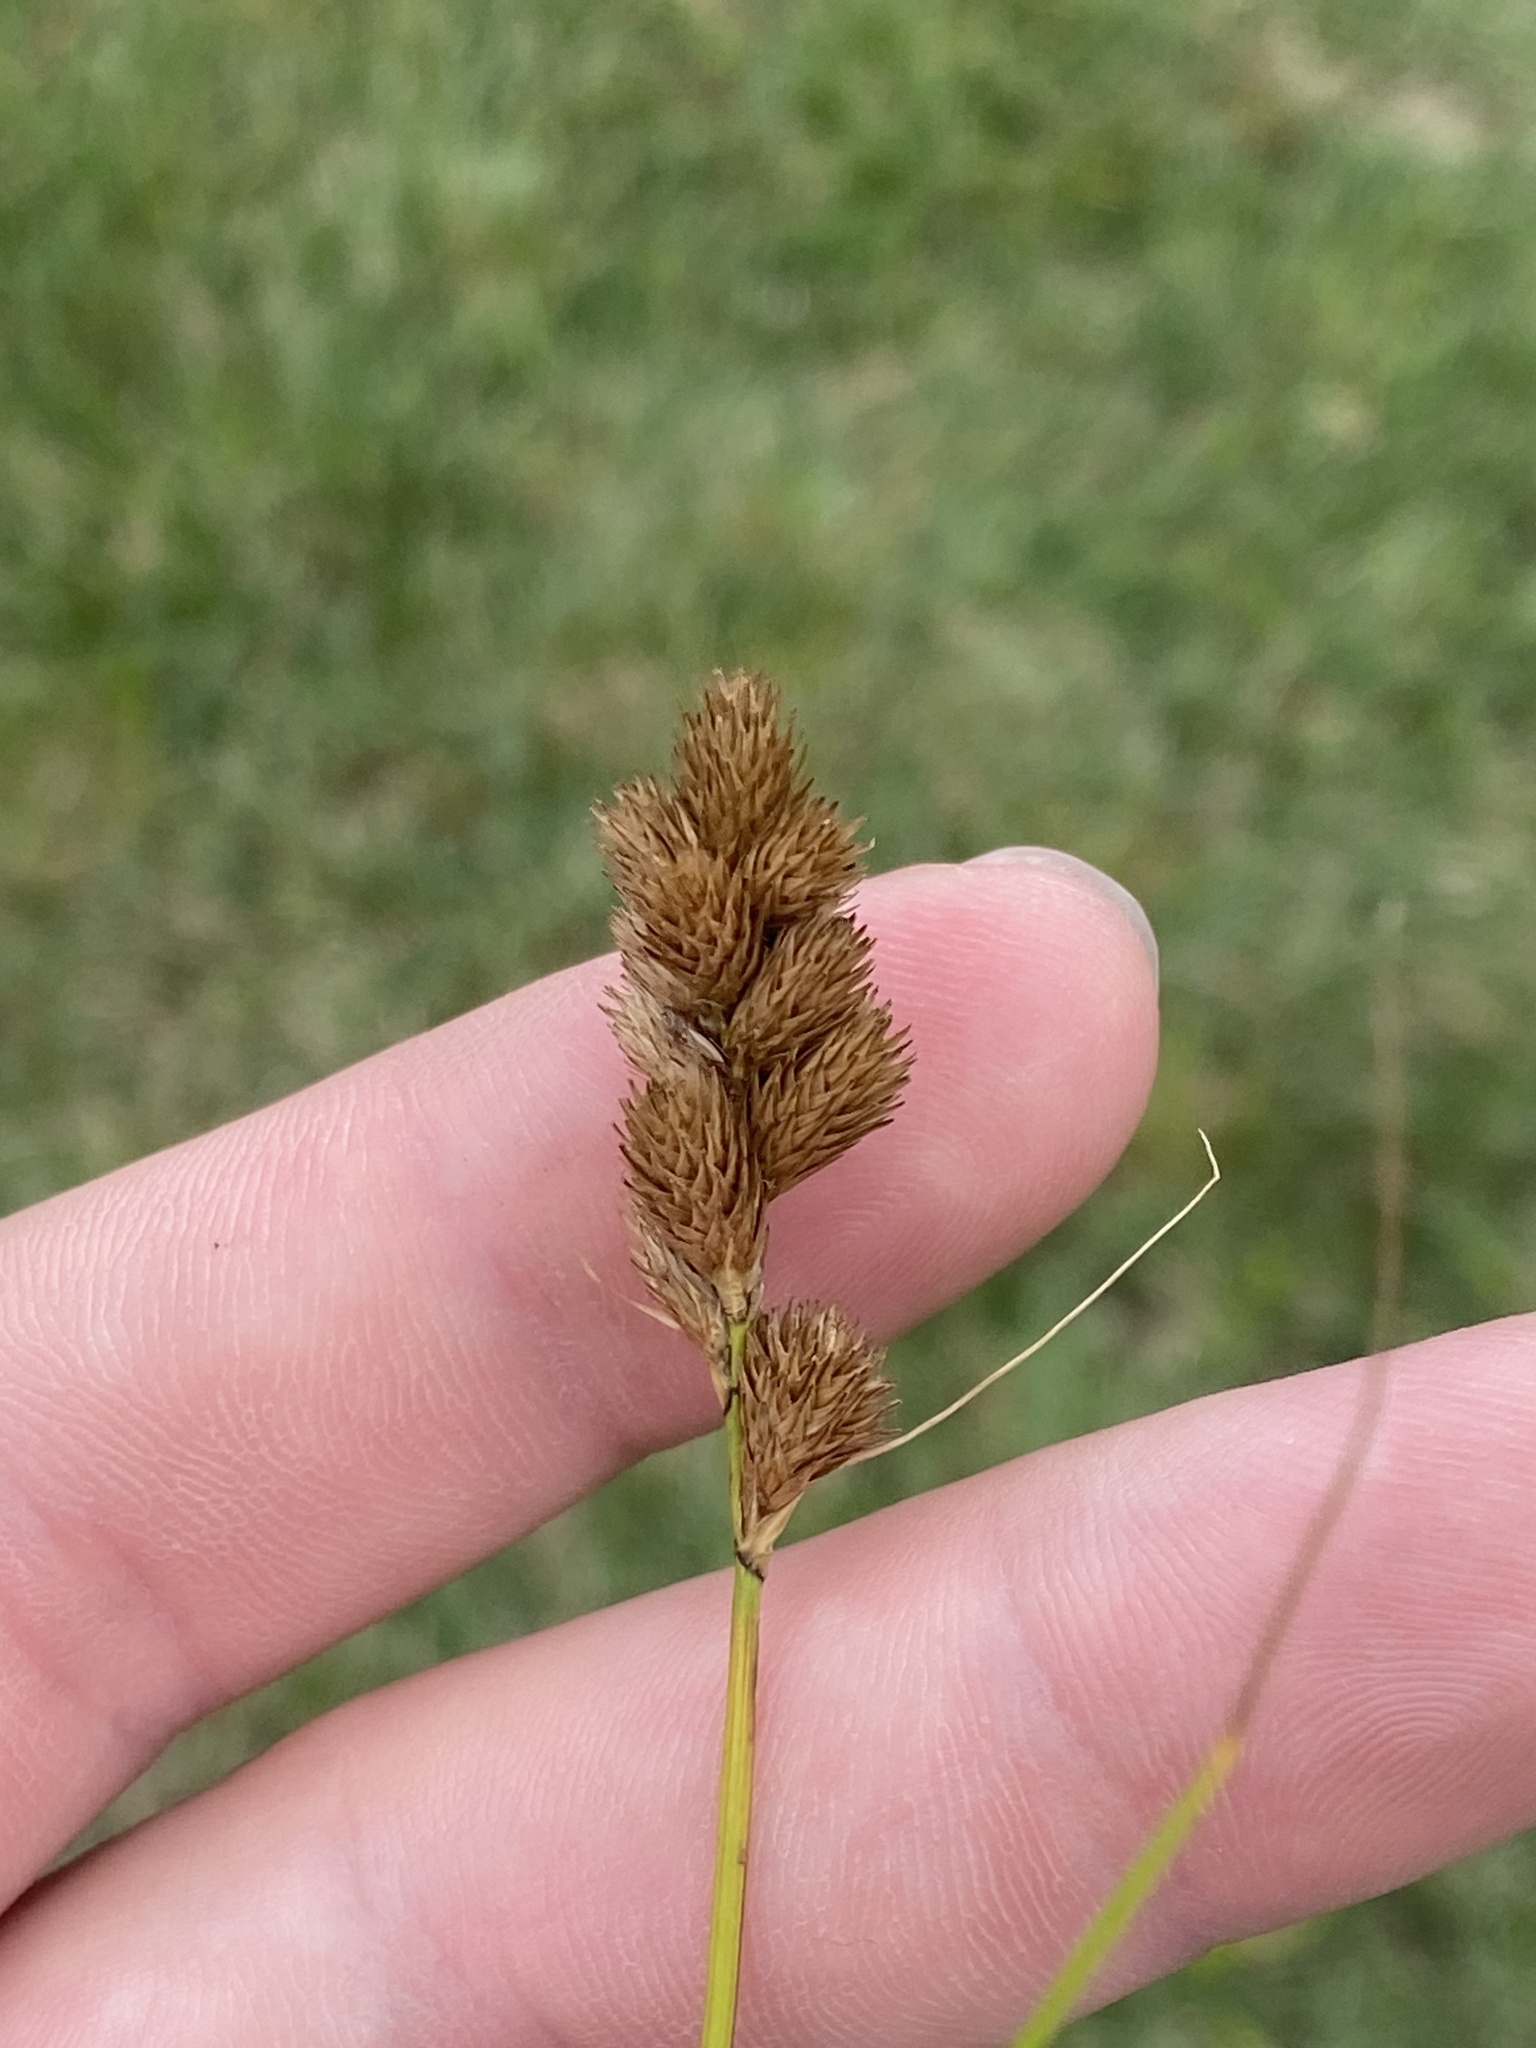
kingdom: Plantae
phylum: Tracheophyta
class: Liliopsida
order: Poales
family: Cyperaceae
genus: Carex
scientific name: Carex tribuloides
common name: Blunt broom sedge
